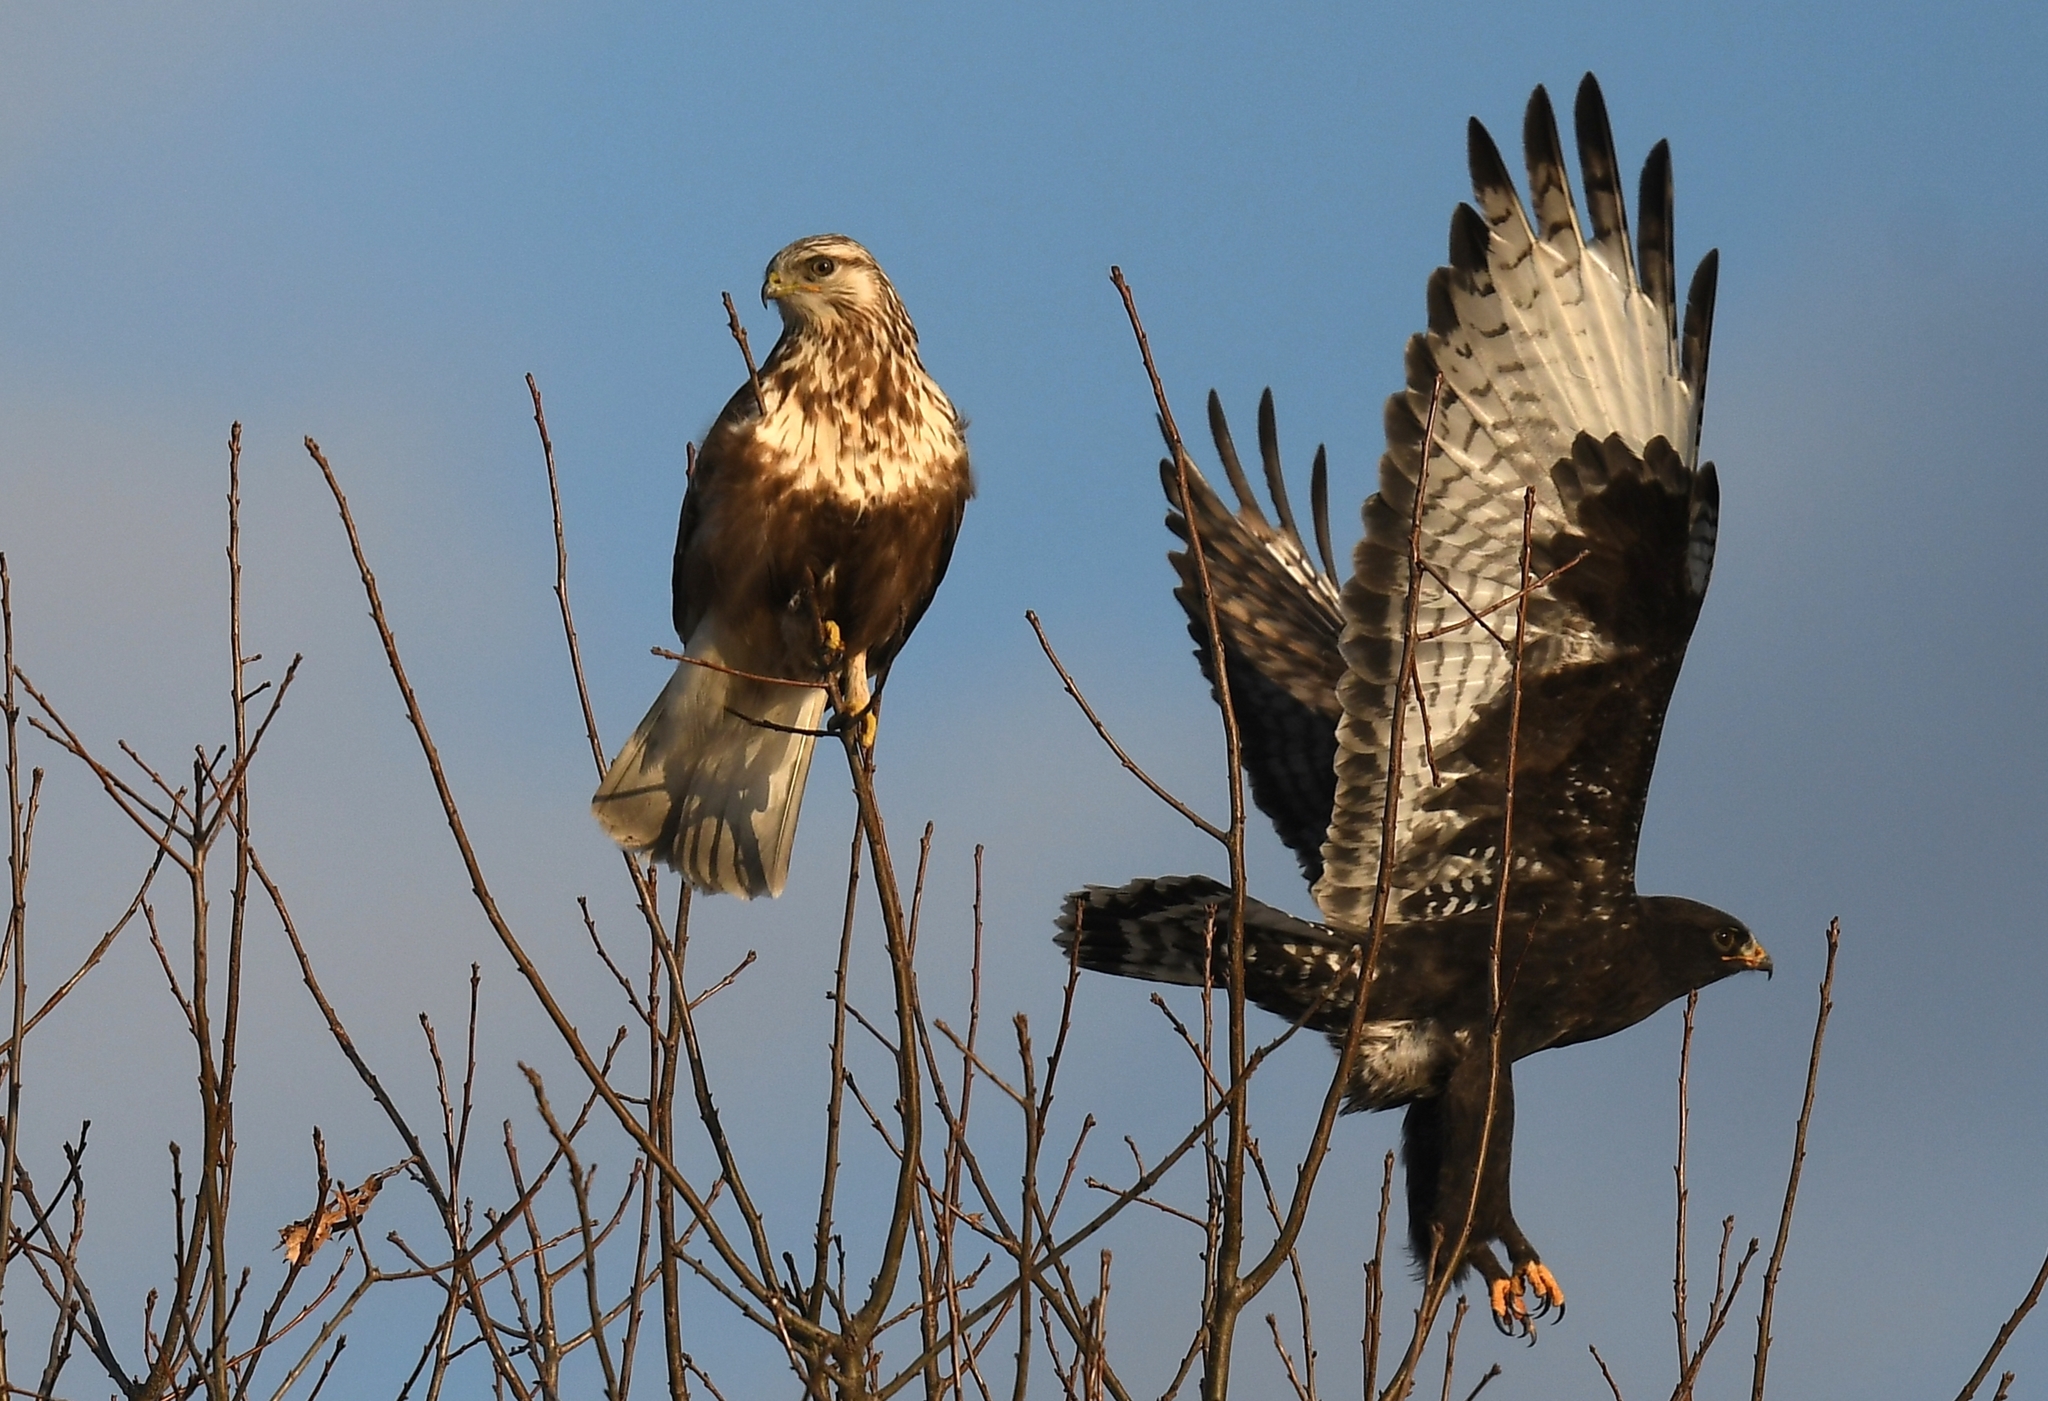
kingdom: Animalia
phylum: Chordata
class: Aves
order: Accipitriformes
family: Accipitridae
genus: Buteo
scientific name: Buteo lagopus
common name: Rough-legged buzzard
